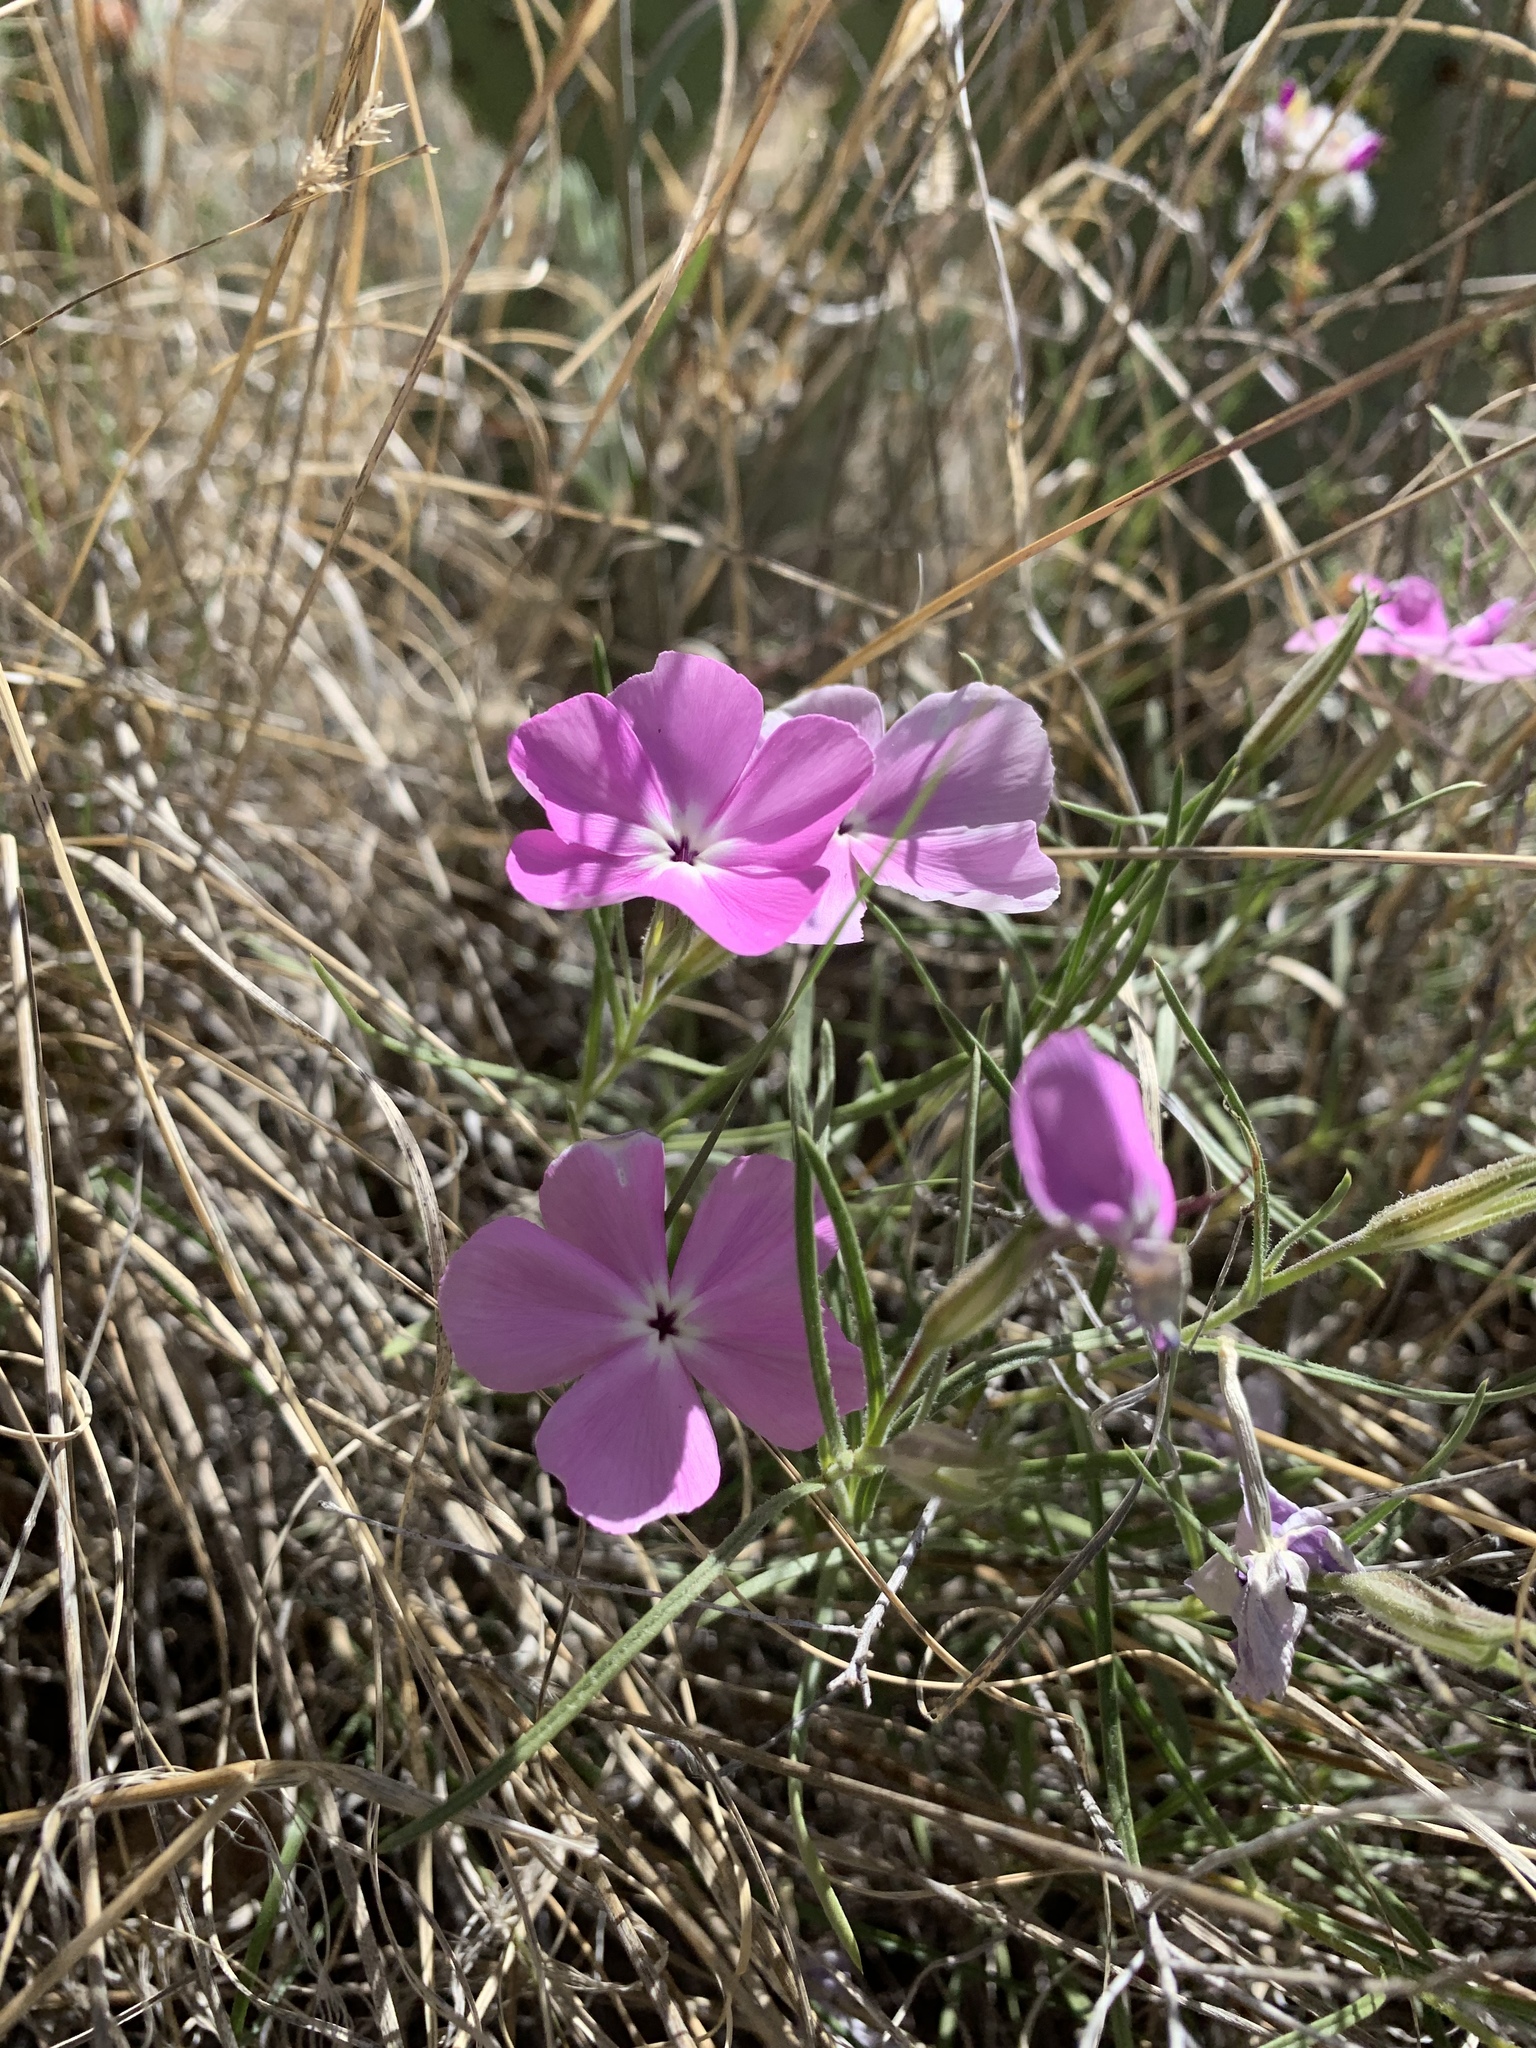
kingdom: Plantae
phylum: Tracheophyta
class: Magnoliopsida
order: Ericales
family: Polemoniaceae
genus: Phlox
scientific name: Phlox nana
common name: Santa fe phlox
